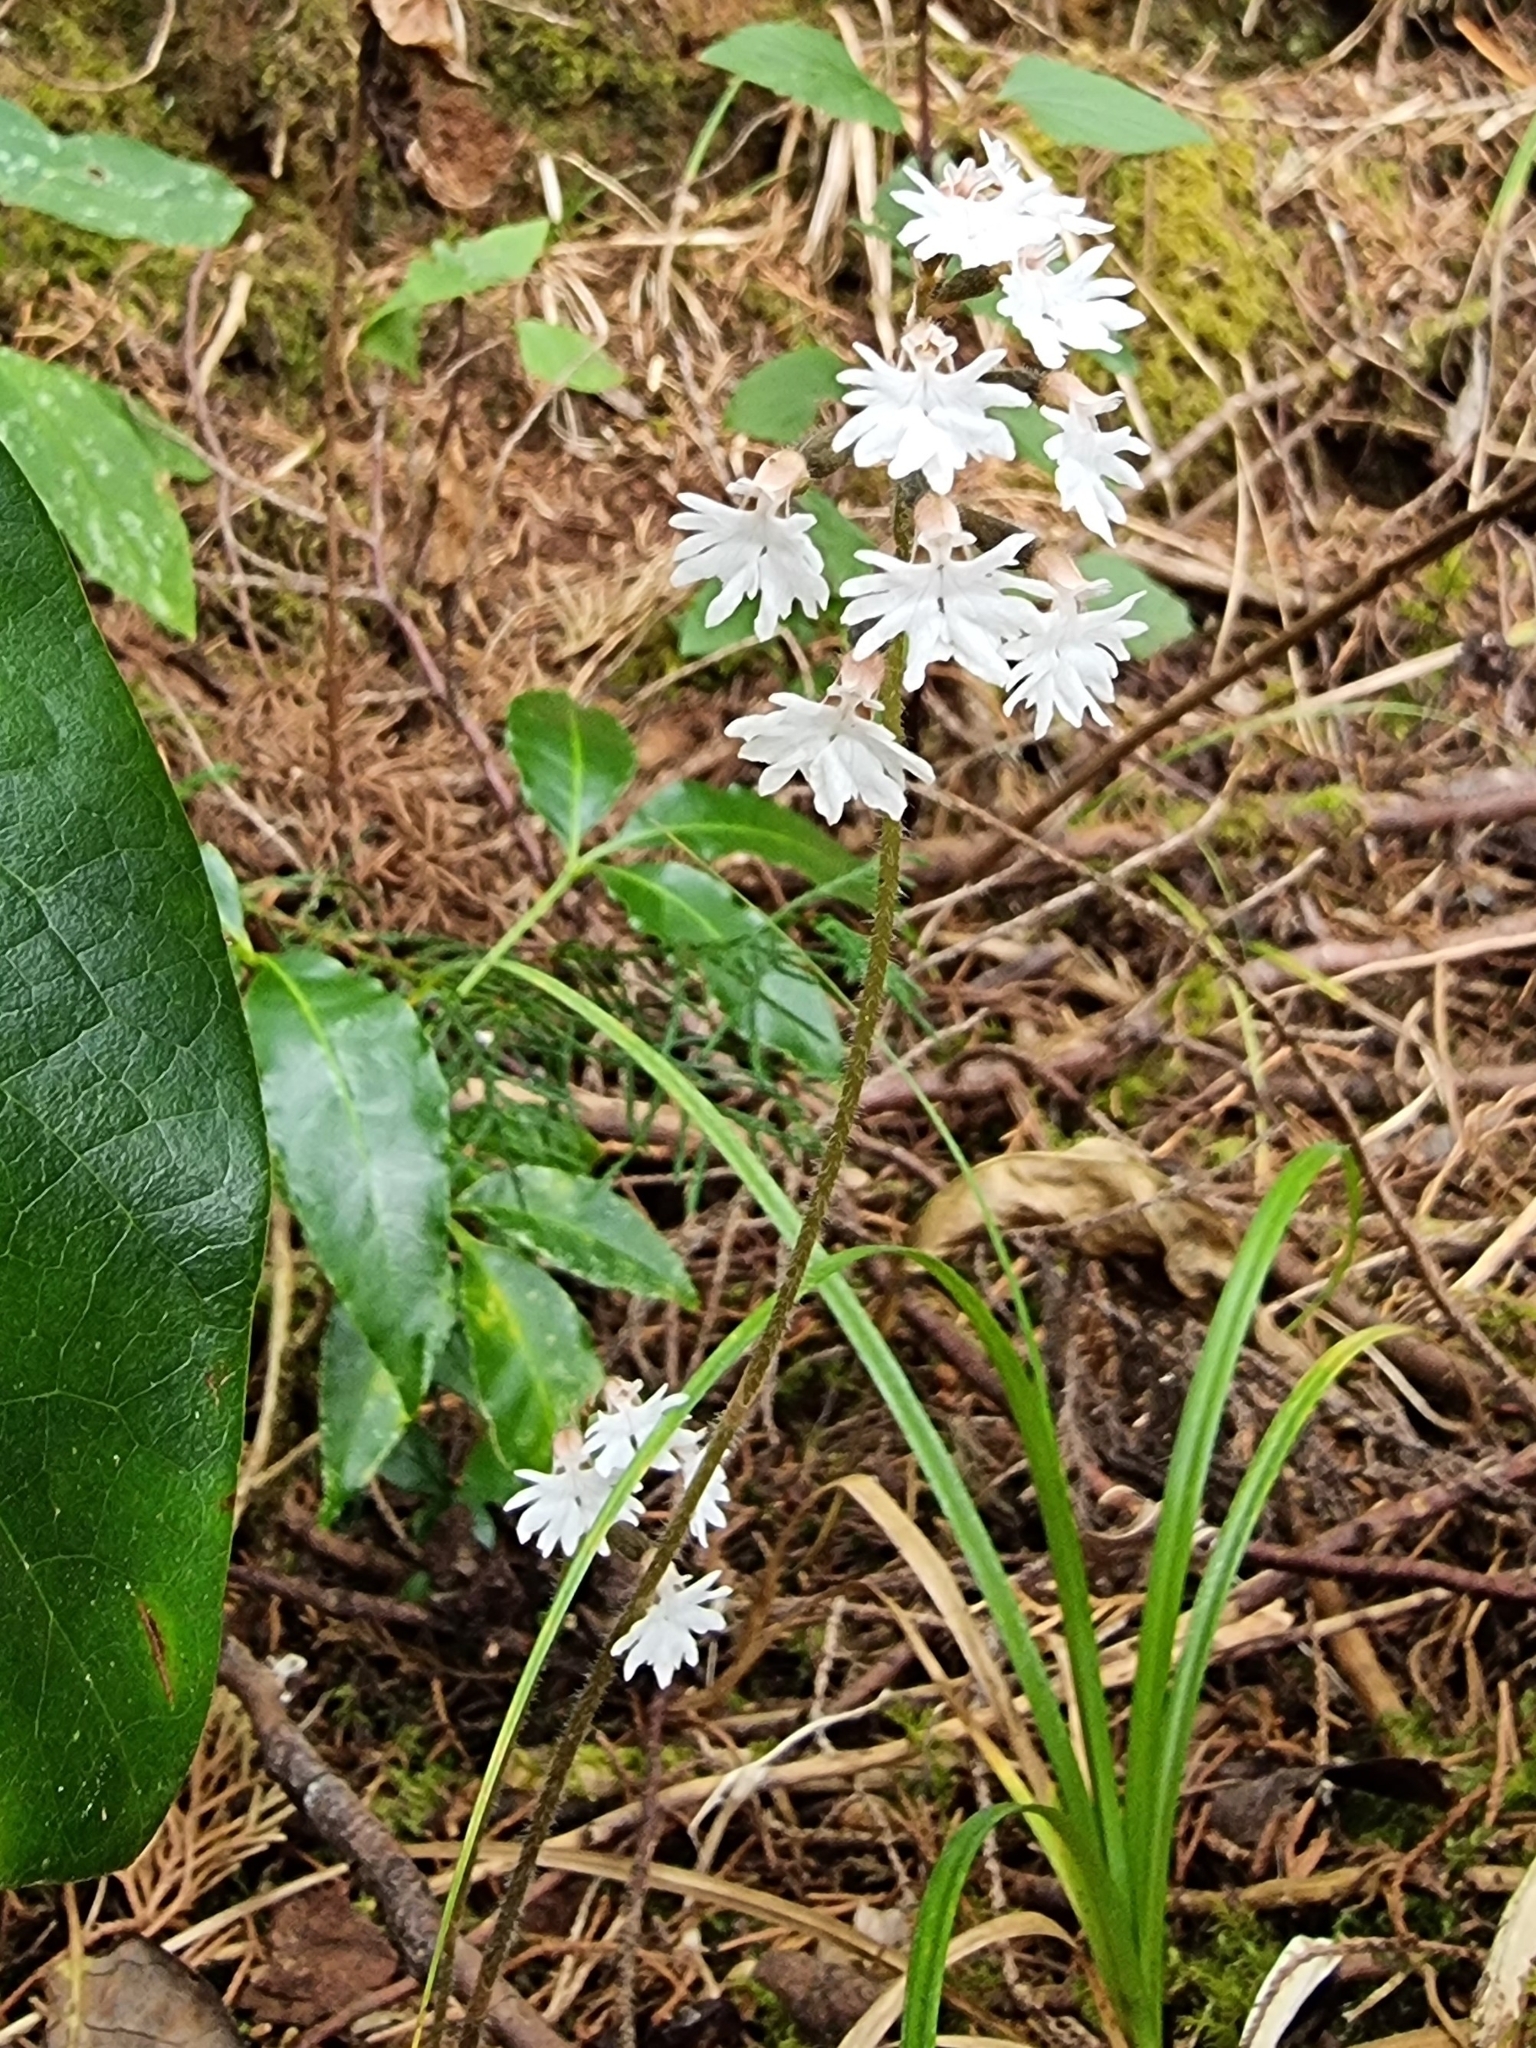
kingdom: Plantae
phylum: Tracheophyta
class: Liliopsida
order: Asparagales
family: Orchidaceae
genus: Cheirostylis
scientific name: Cheirostylis flabellata
